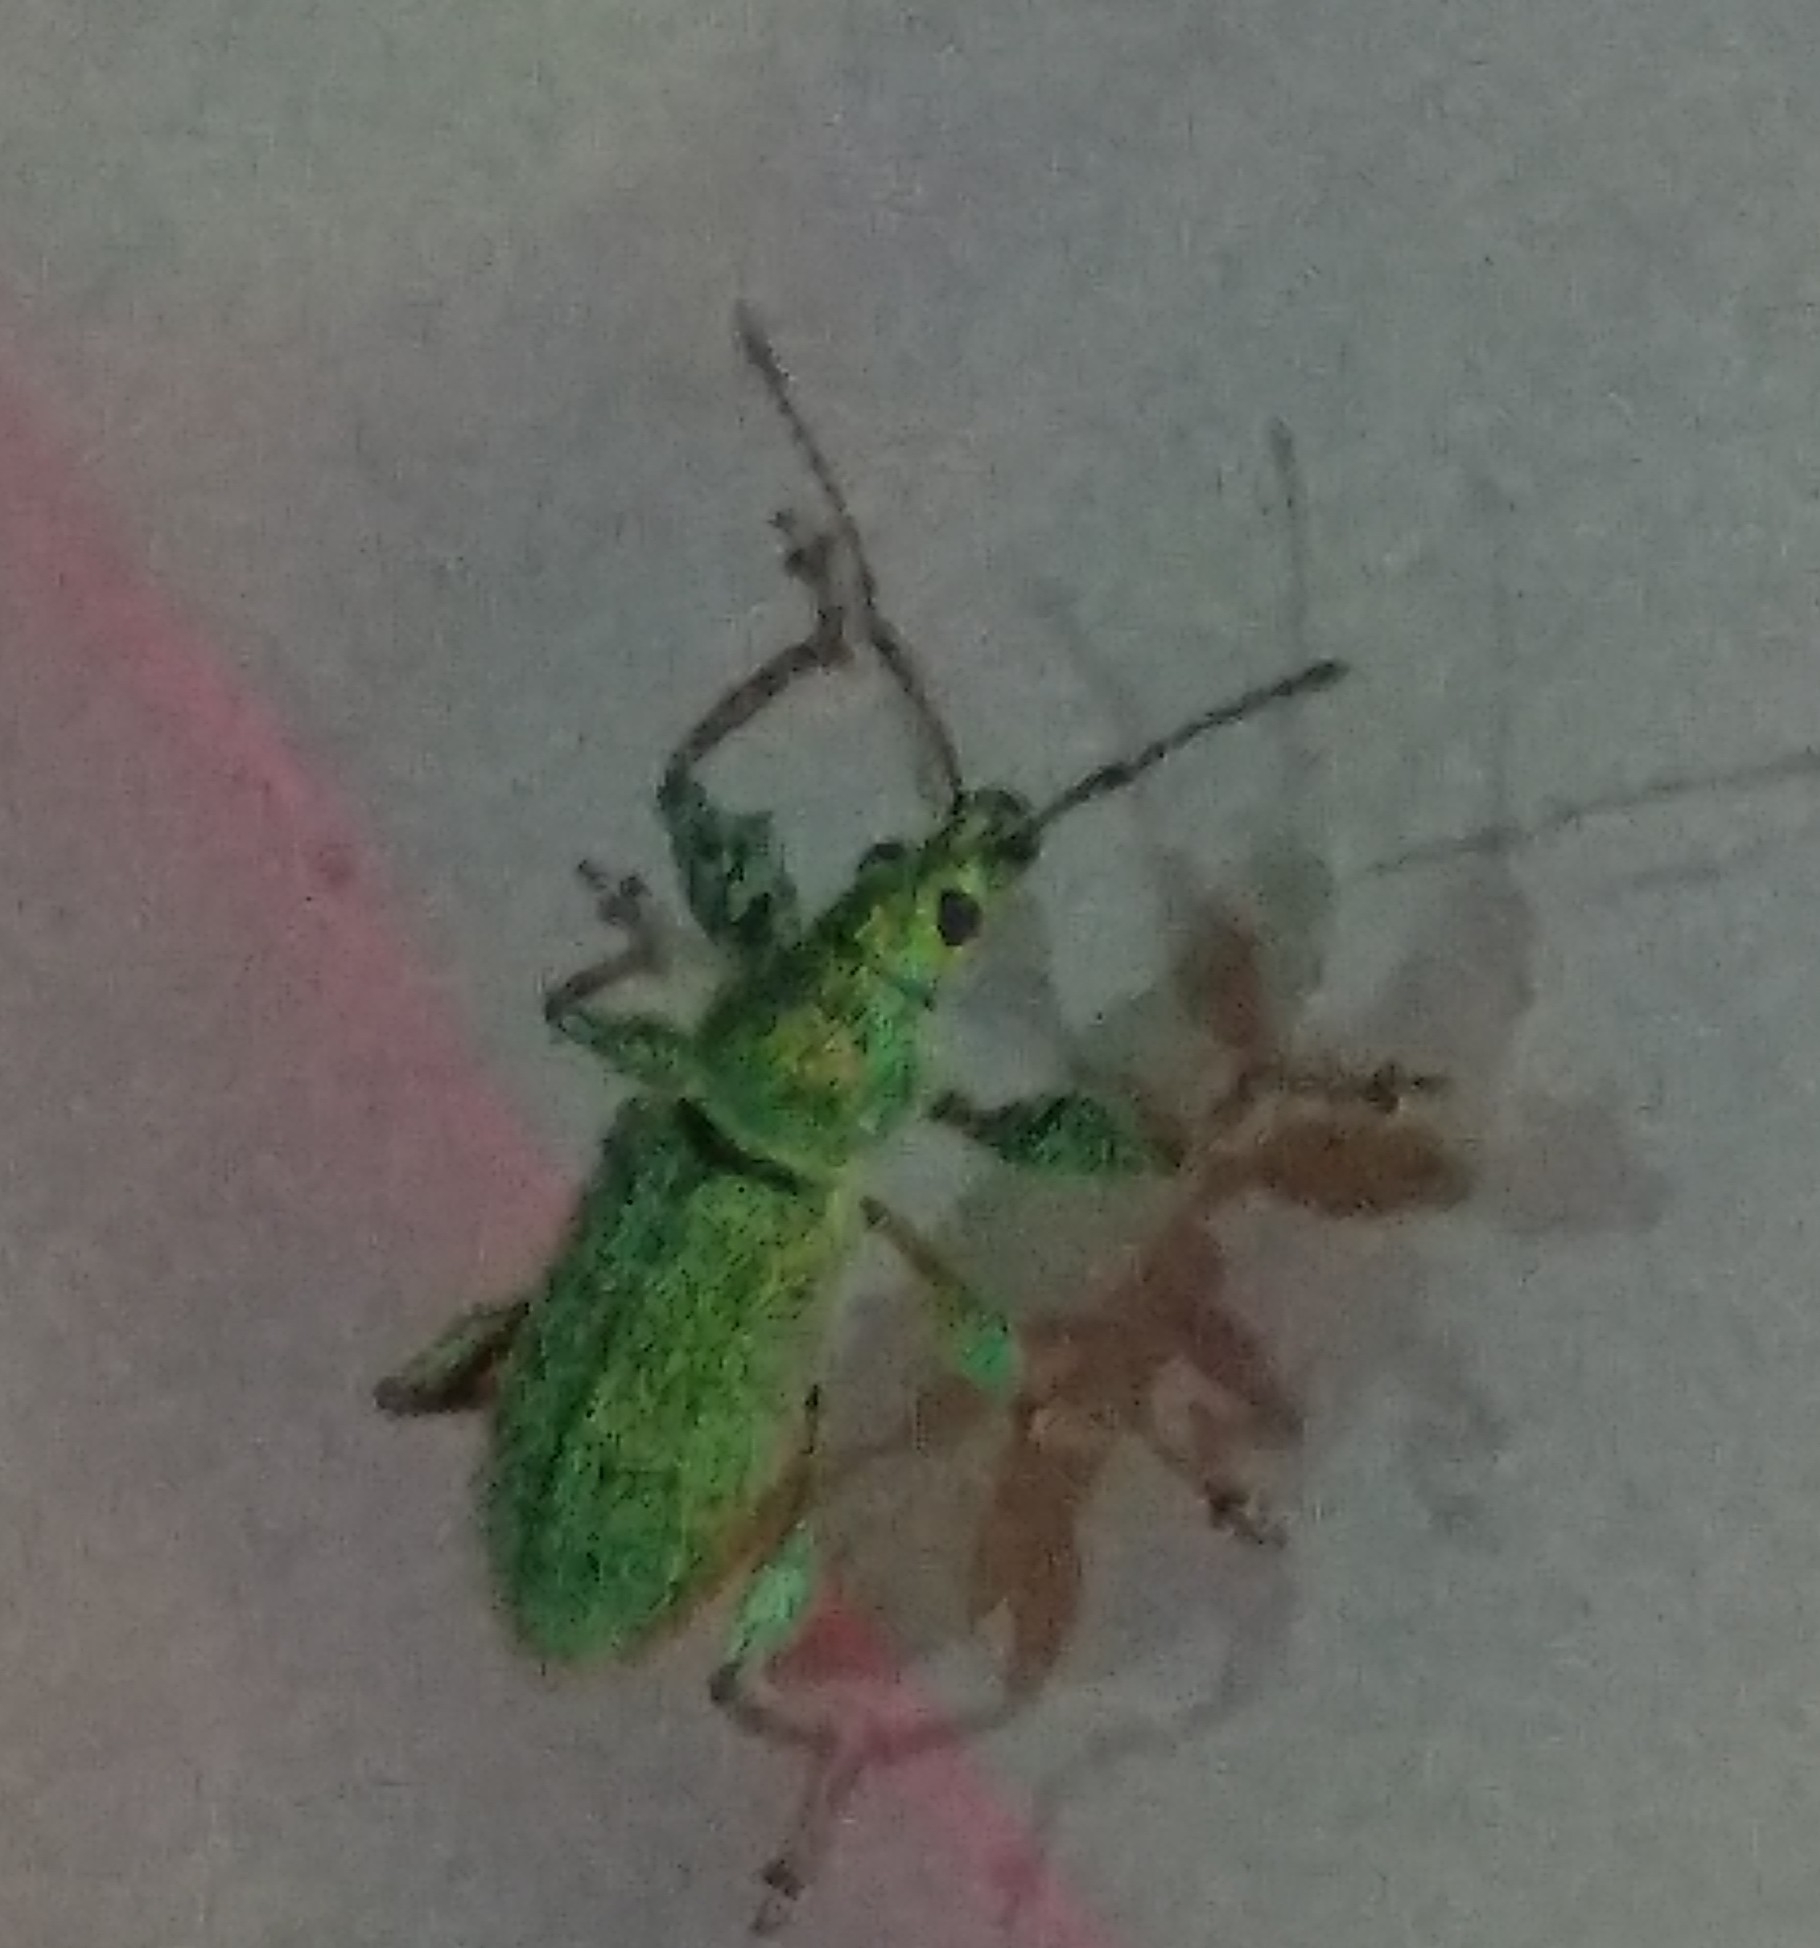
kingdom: Animalia
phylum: Arthropoda
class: Insecta
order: Coleoptera
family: Curculionidae
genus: Phyllobius
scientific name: Phyllobius arborator
